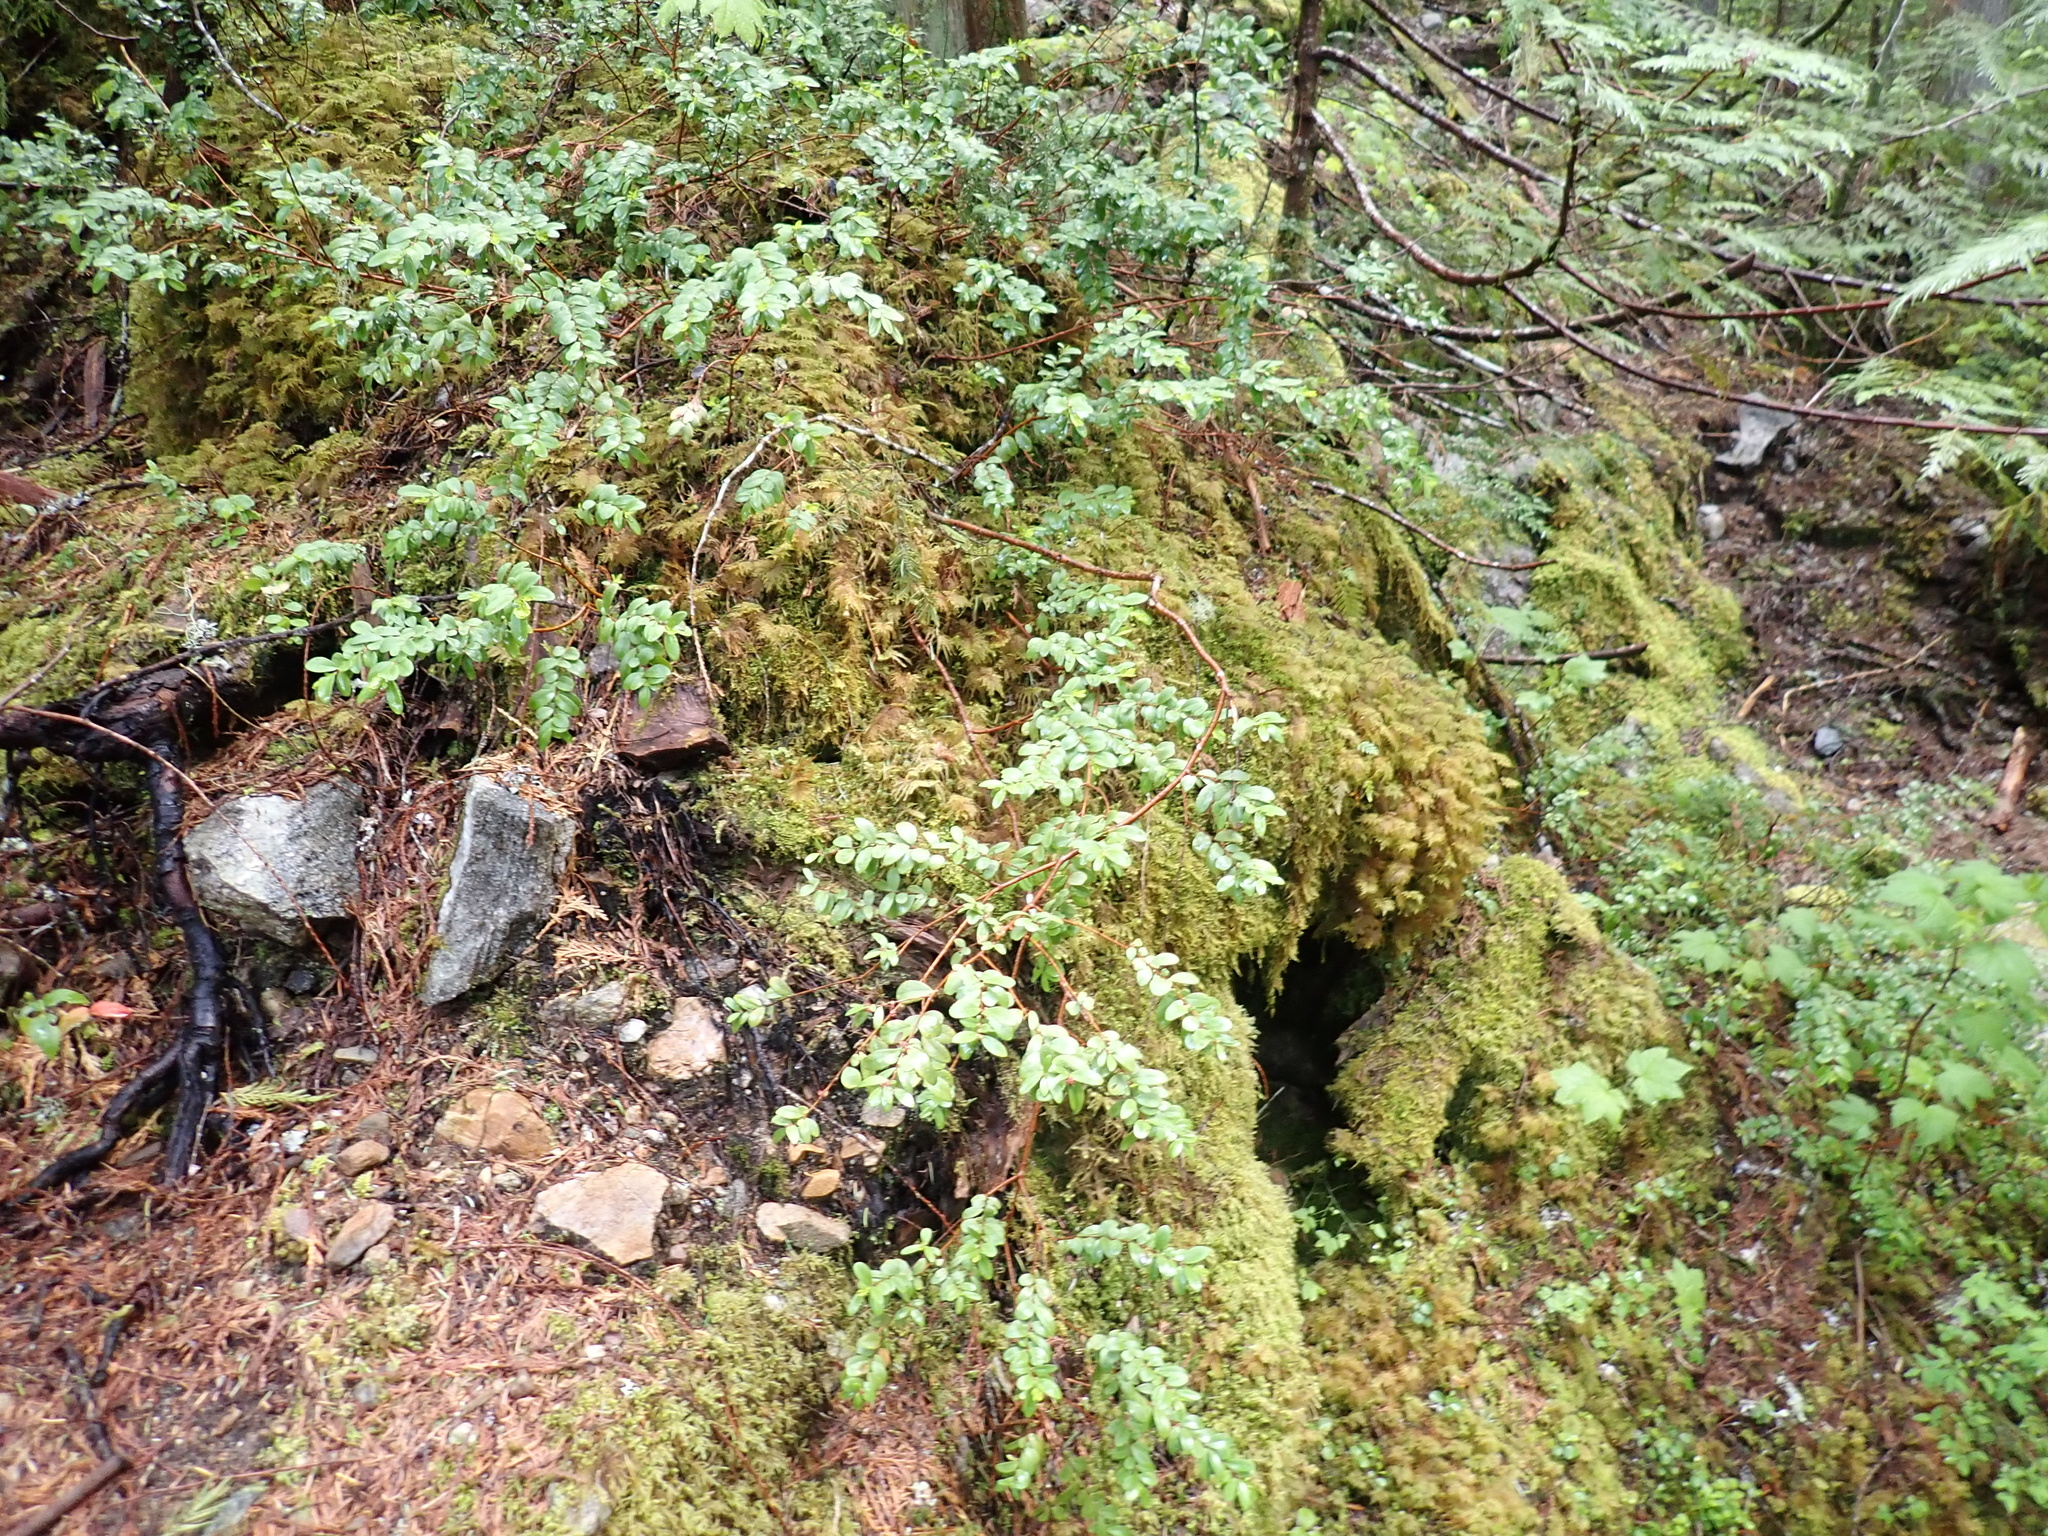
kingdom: Plantae
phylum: Tracheophyta
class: Magnoliopsida
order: Celastrales
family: Celastraceae
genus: Paxistima
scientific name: Paxistima myrsinites
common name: Mountain-lover
